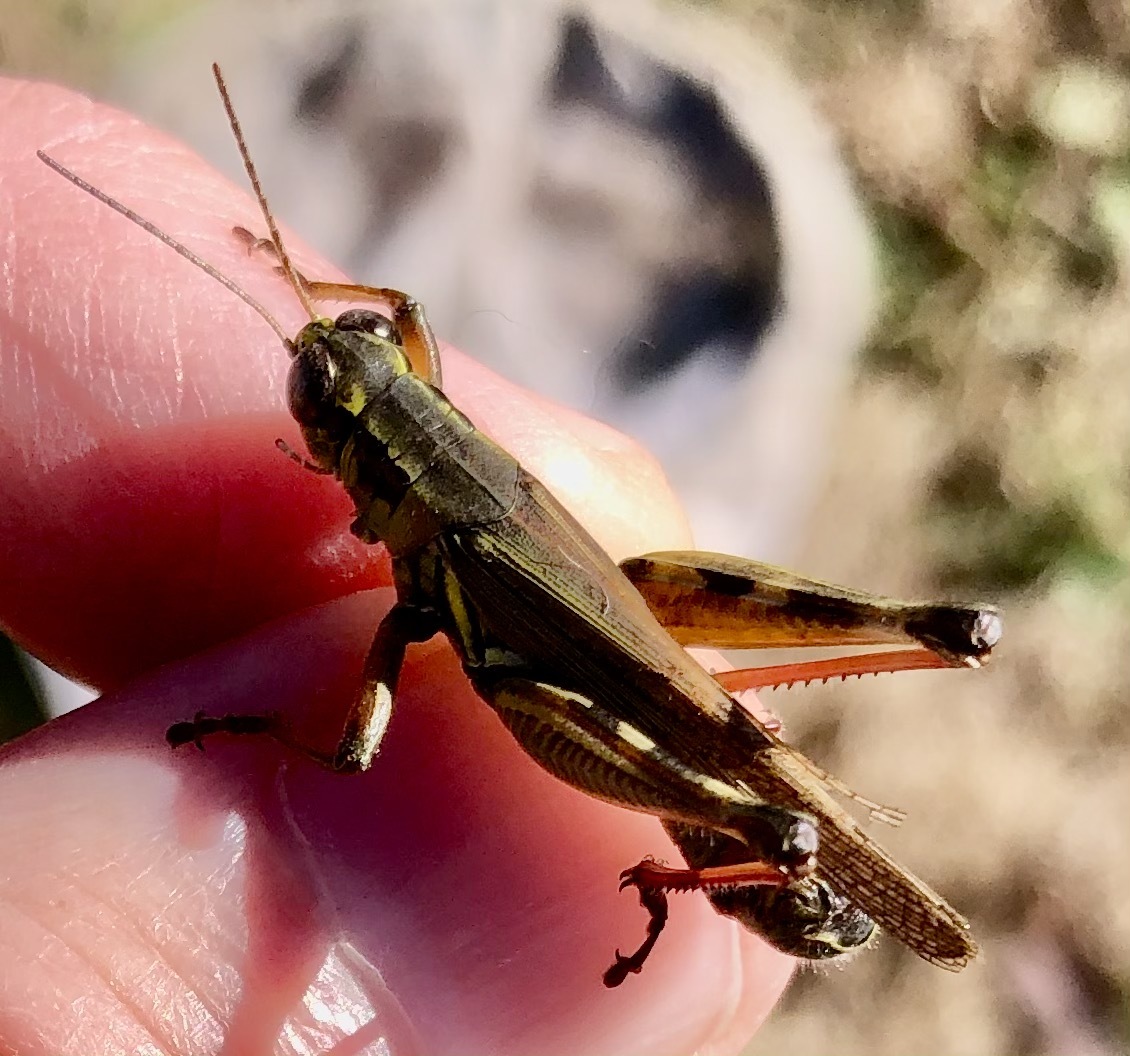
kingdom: Animalia
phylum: Arthropoda
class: Insecta
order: Orthoptera
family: Acrididae
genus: Melanoplus
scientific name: Melanoplus femurrubrum
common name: Red-legged grasshopper
